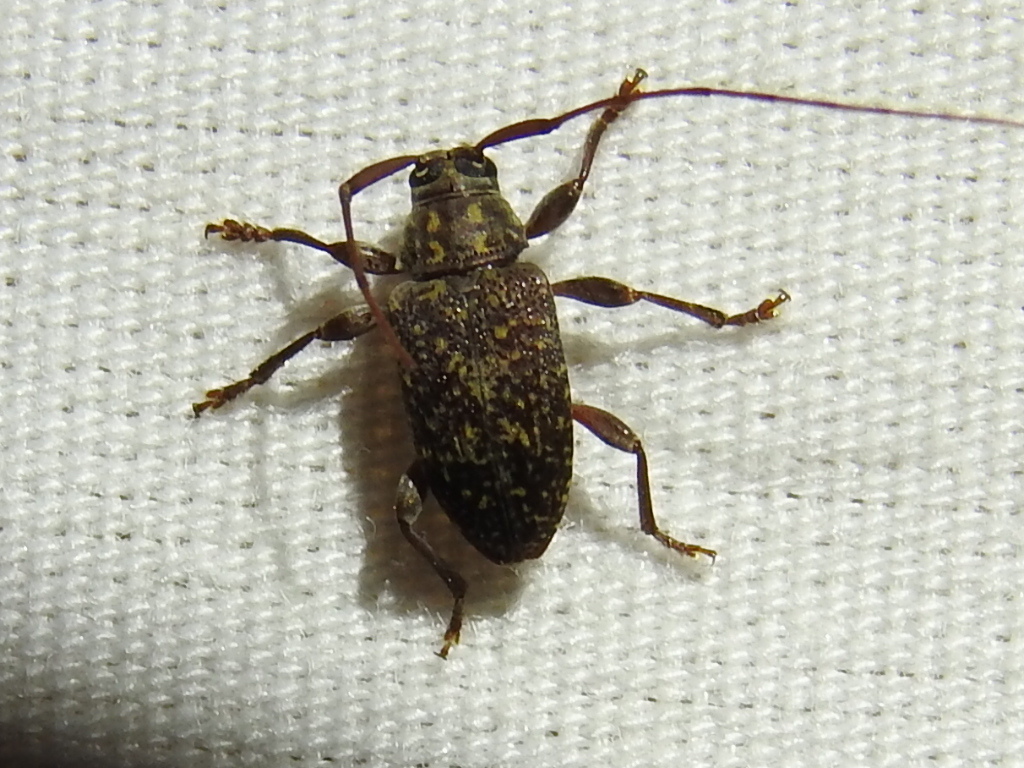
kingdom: Animalia
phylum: Arthropoda
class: Insecta
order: Coleoptera
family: Cerambycidae
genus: Atrypanius
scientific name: Atrypanius irrorellus
